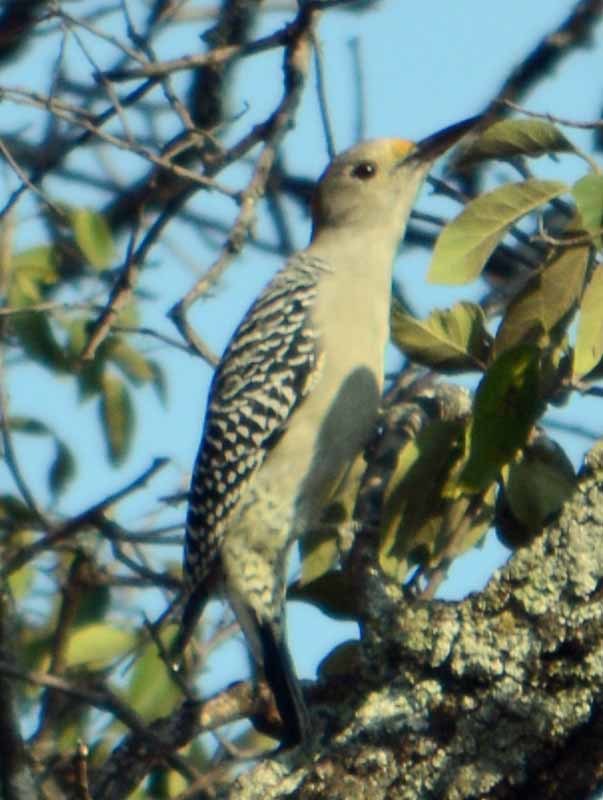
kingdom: Animalia
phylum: Chordata
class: Aves
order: Piciformes
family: Picidae
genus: Melanerpes
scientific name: Melanerpes aurifrons
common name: Golden-fronted woodpecker
